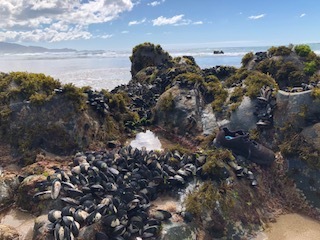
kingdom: Animalia
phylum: Mollusca
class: Bivalvia
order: Mytilida
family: Mytilidae
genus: Perna
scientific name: Perna canaliculus
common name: New zealand greenshelltm
